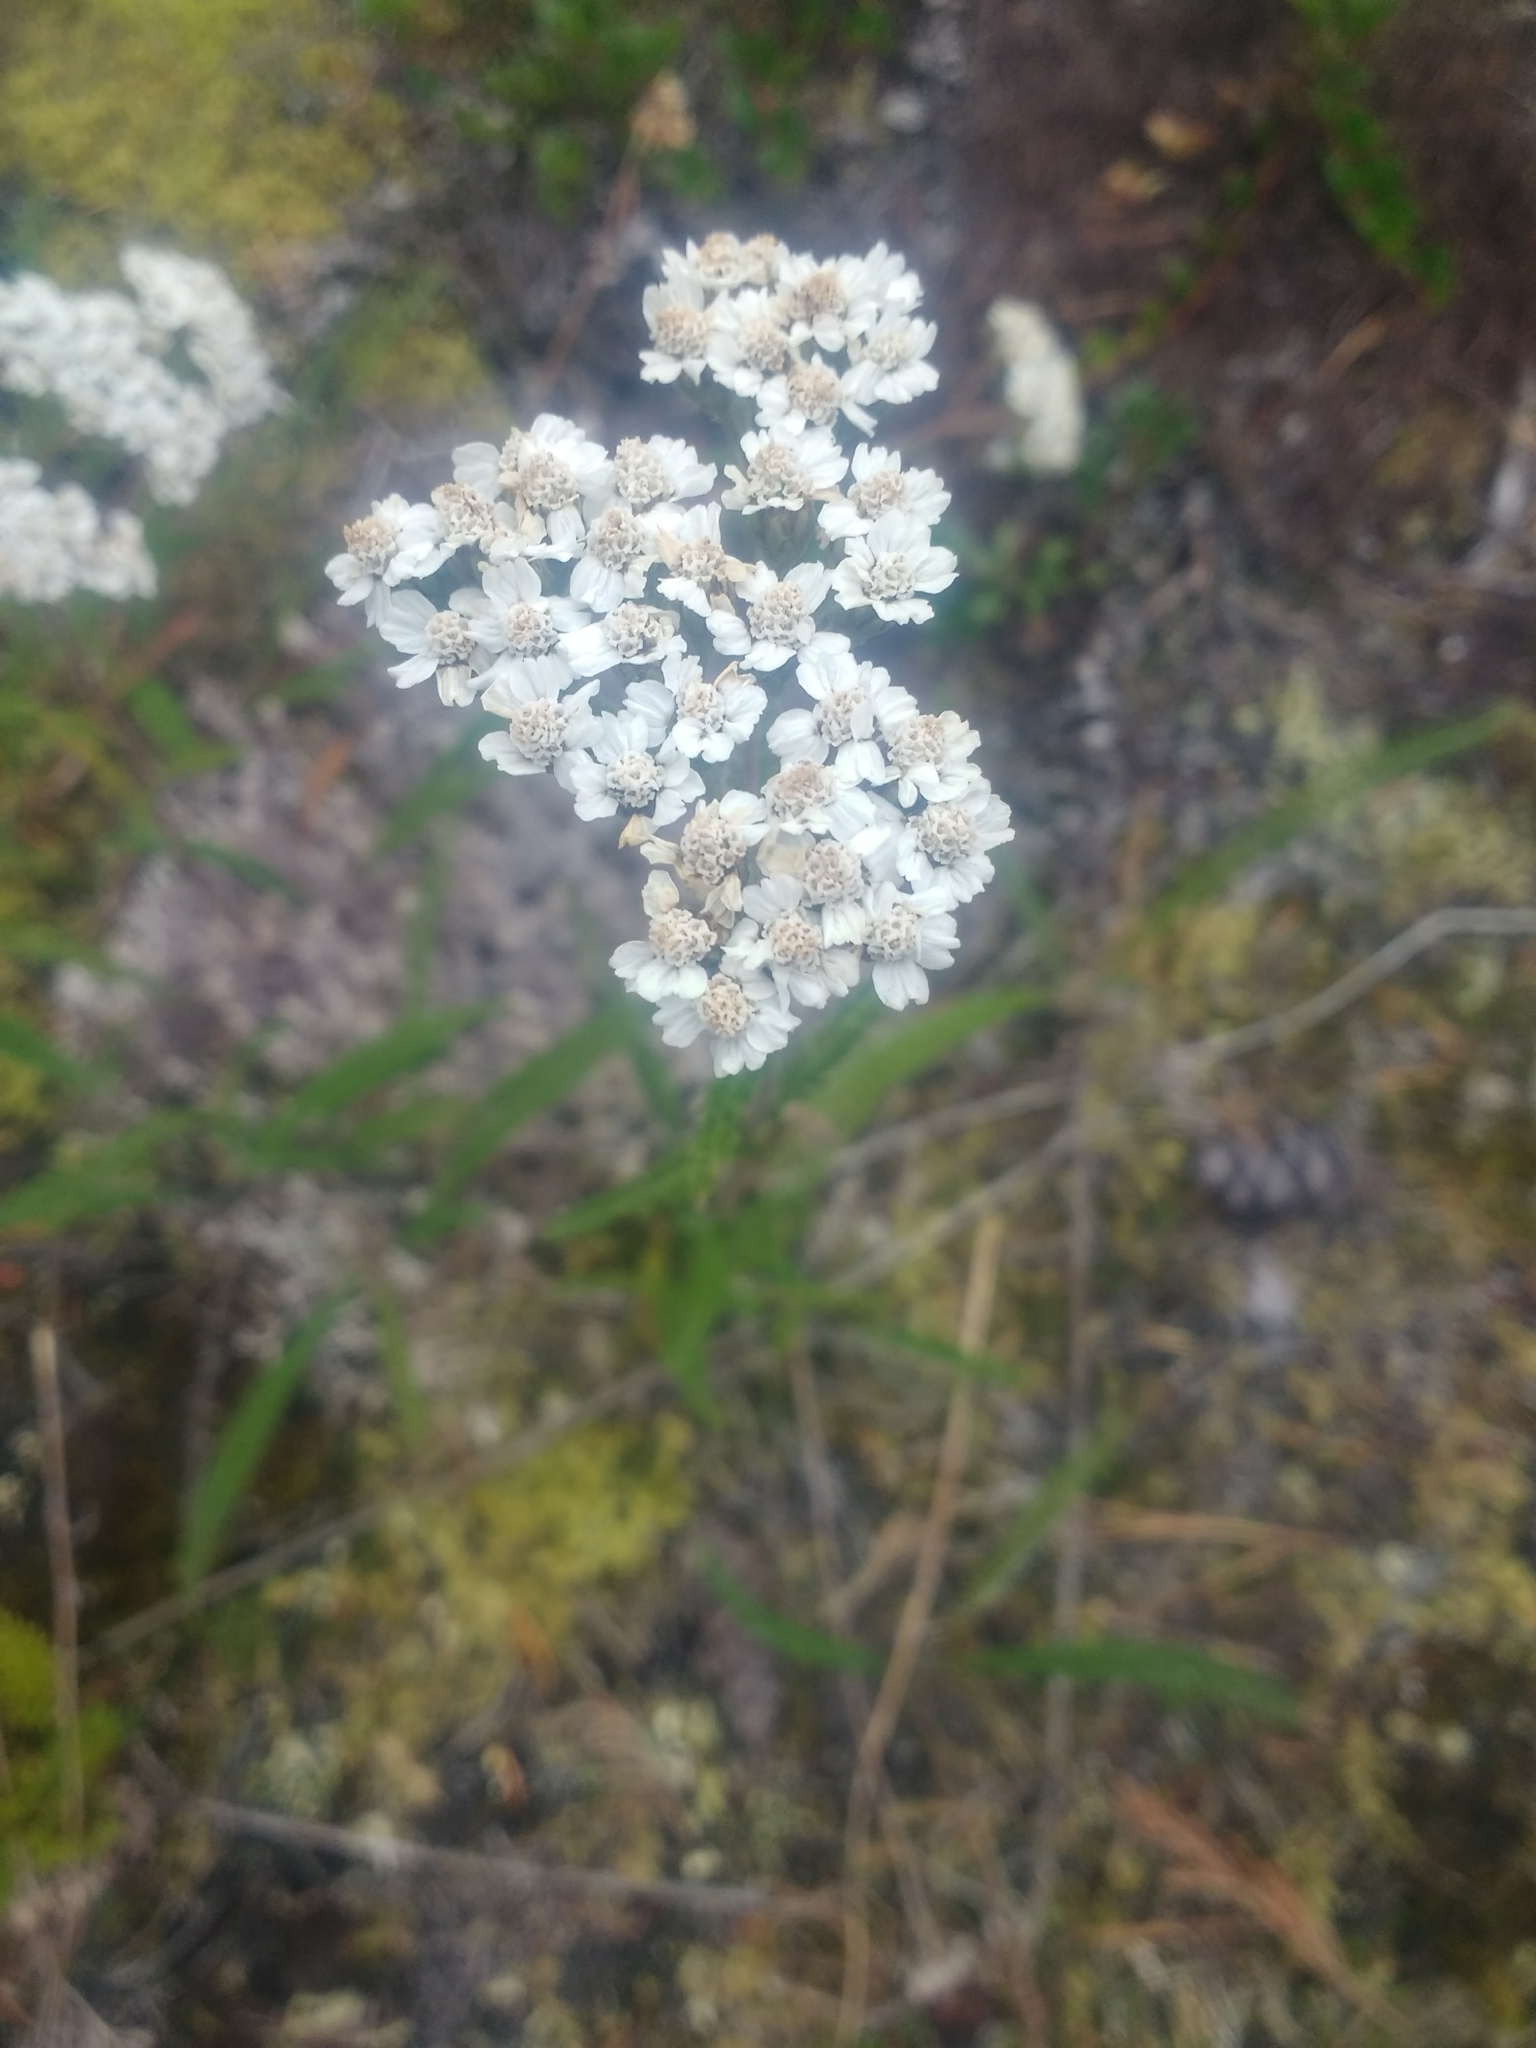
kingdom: Plantae
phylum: Tracheophyta
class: Magnoliopsida
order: Asterales
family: Asteraceae
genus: Achillea
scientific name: Achillea millefolium
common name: Yarrow
